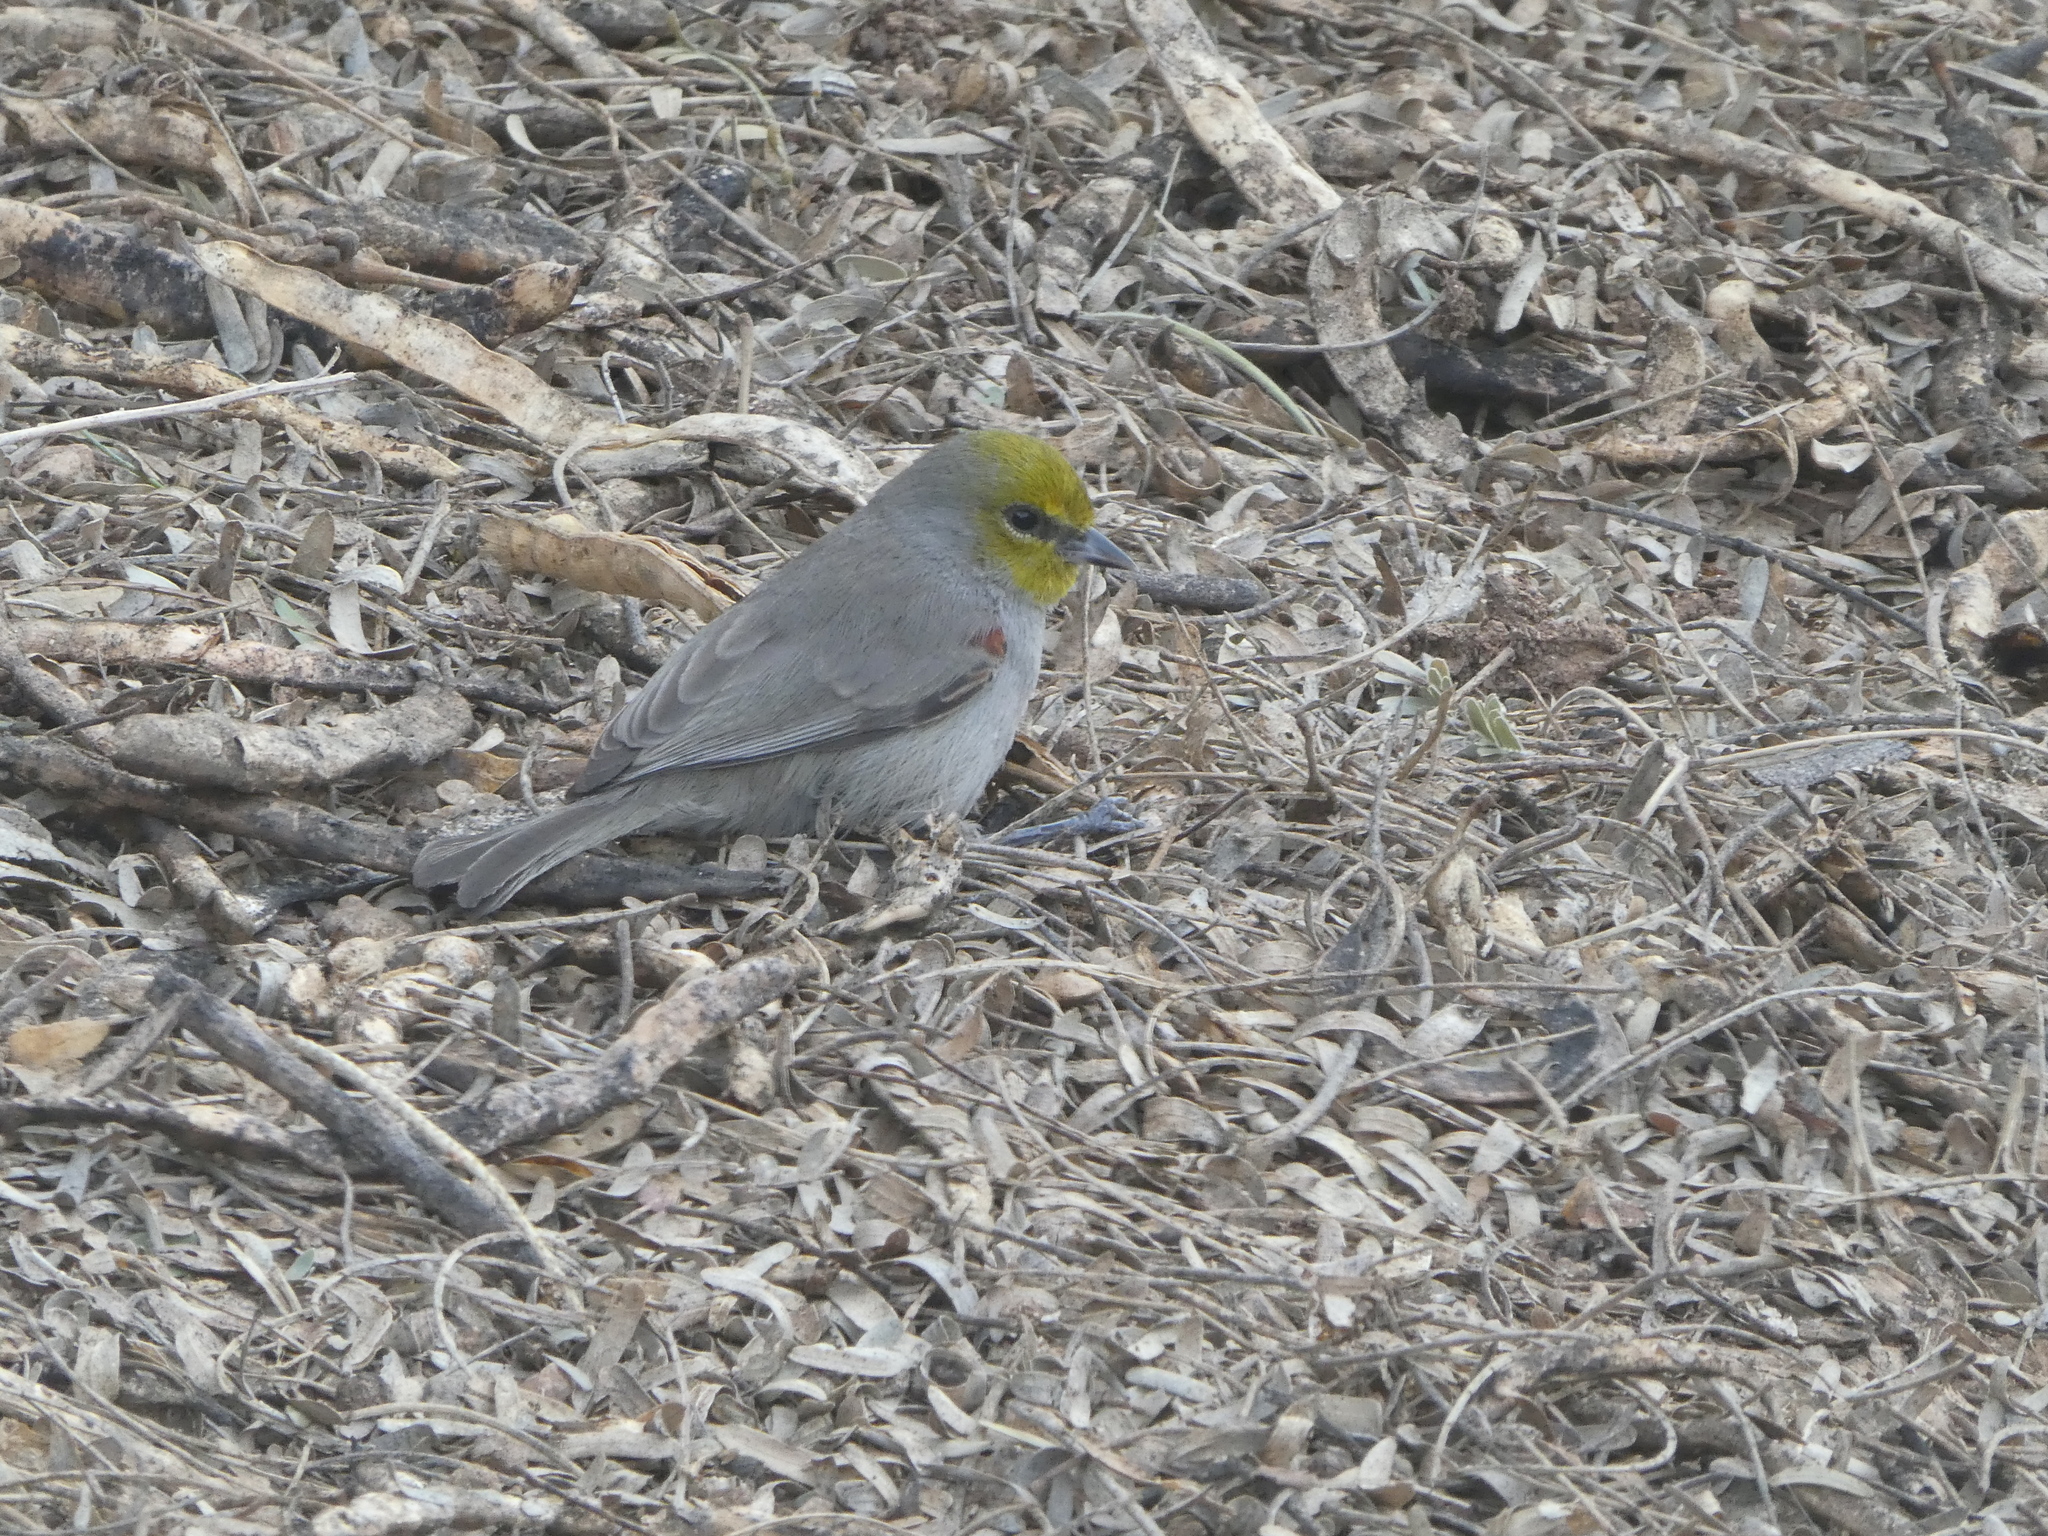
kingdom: Animalia
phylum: Chordata
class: Aves
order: Passeriformes
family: Remizidae
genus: Auriparus
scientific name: Auriparus flaviceps
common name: Verdin
